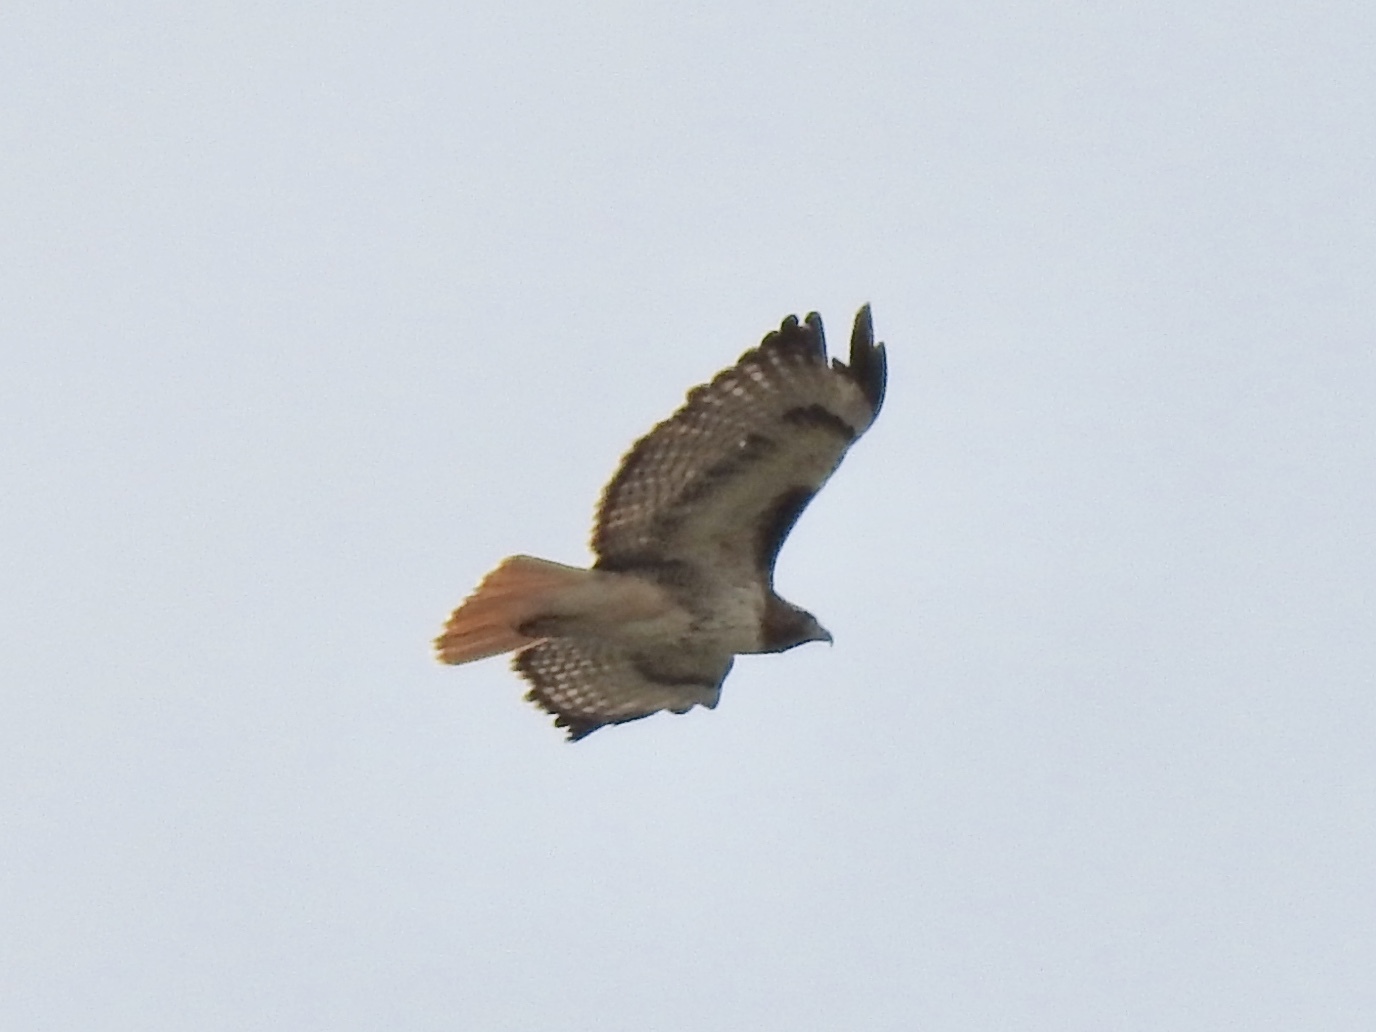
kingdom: Animalia
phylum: Chordata
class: Aves
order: Accipitriformes
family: Accipitridae
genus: Buteo
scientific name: Buteo jamaicensis
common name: Red-tailed hawk
